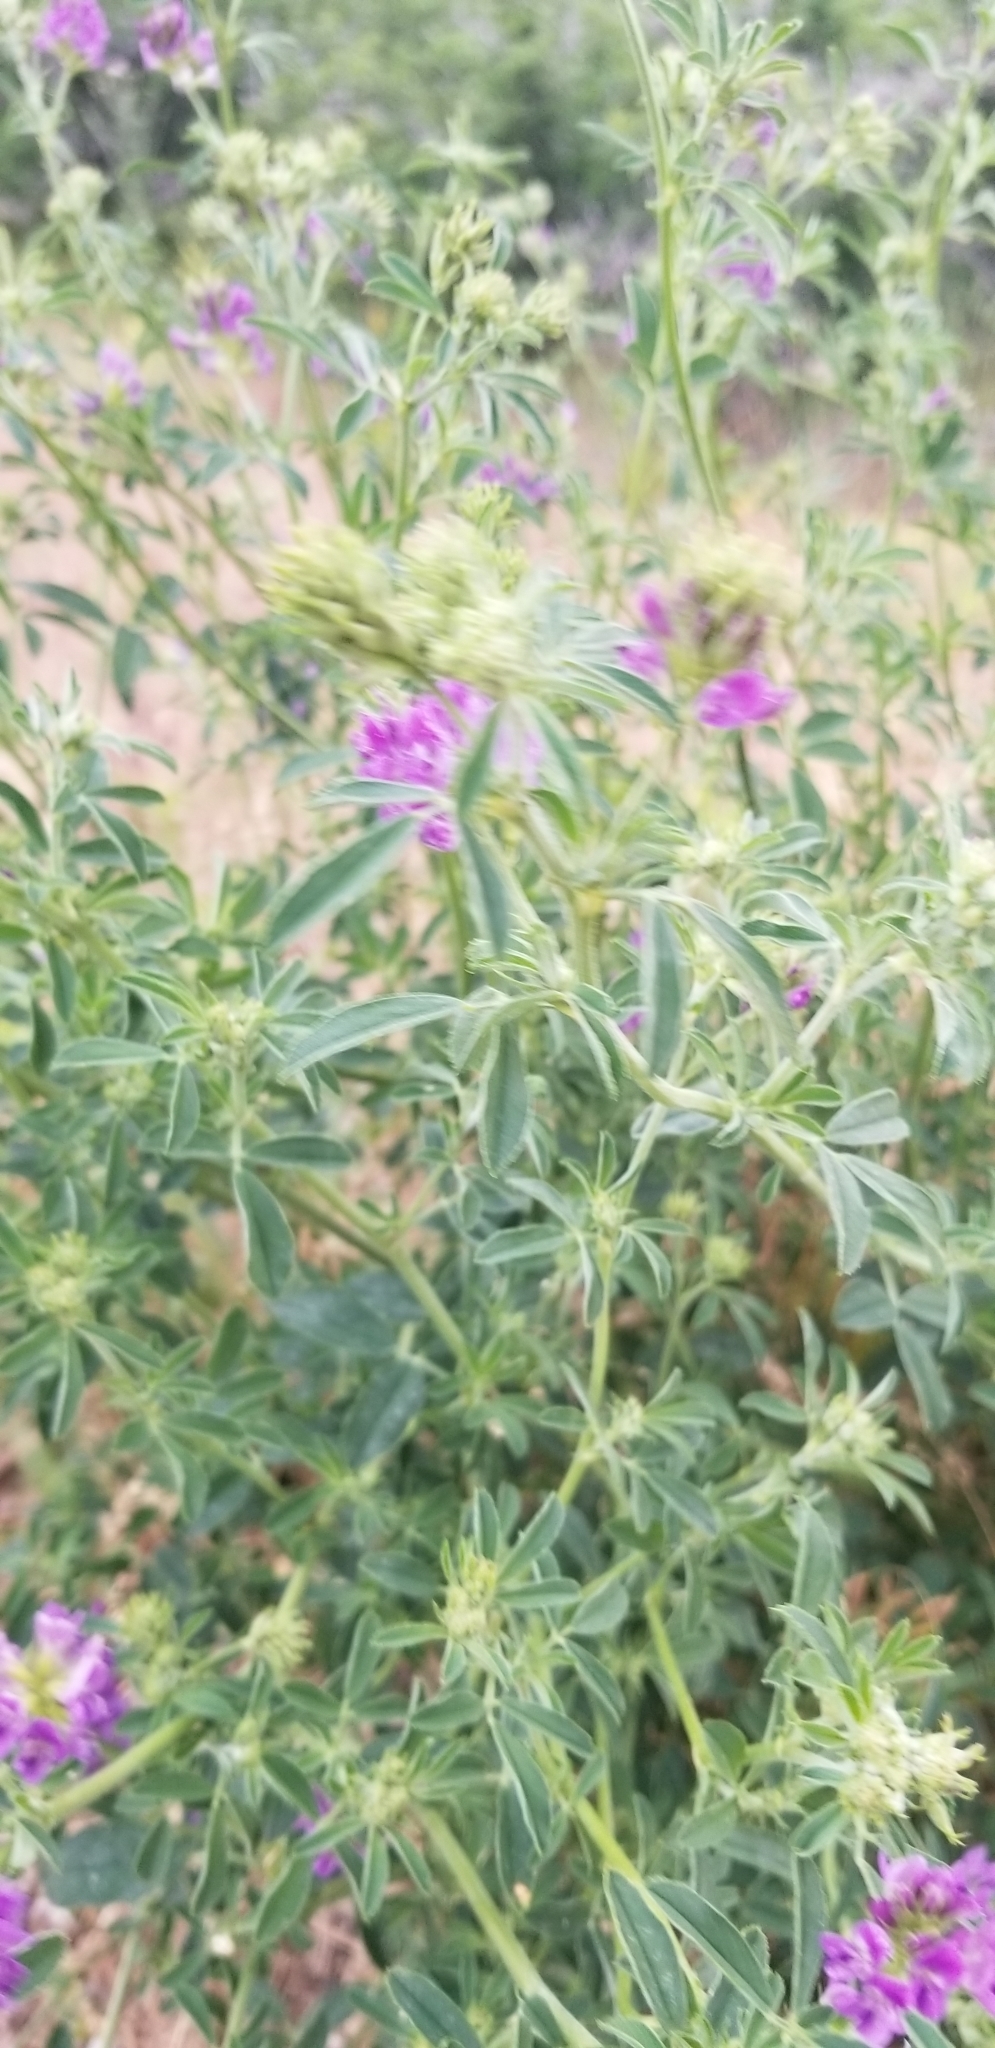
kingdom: Plantae
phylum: Tracheophyta
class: Magnoliopsida
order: Fabales
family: Fabaceae
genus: Medicago
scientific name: Medicago sativa
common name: Alfalfa
